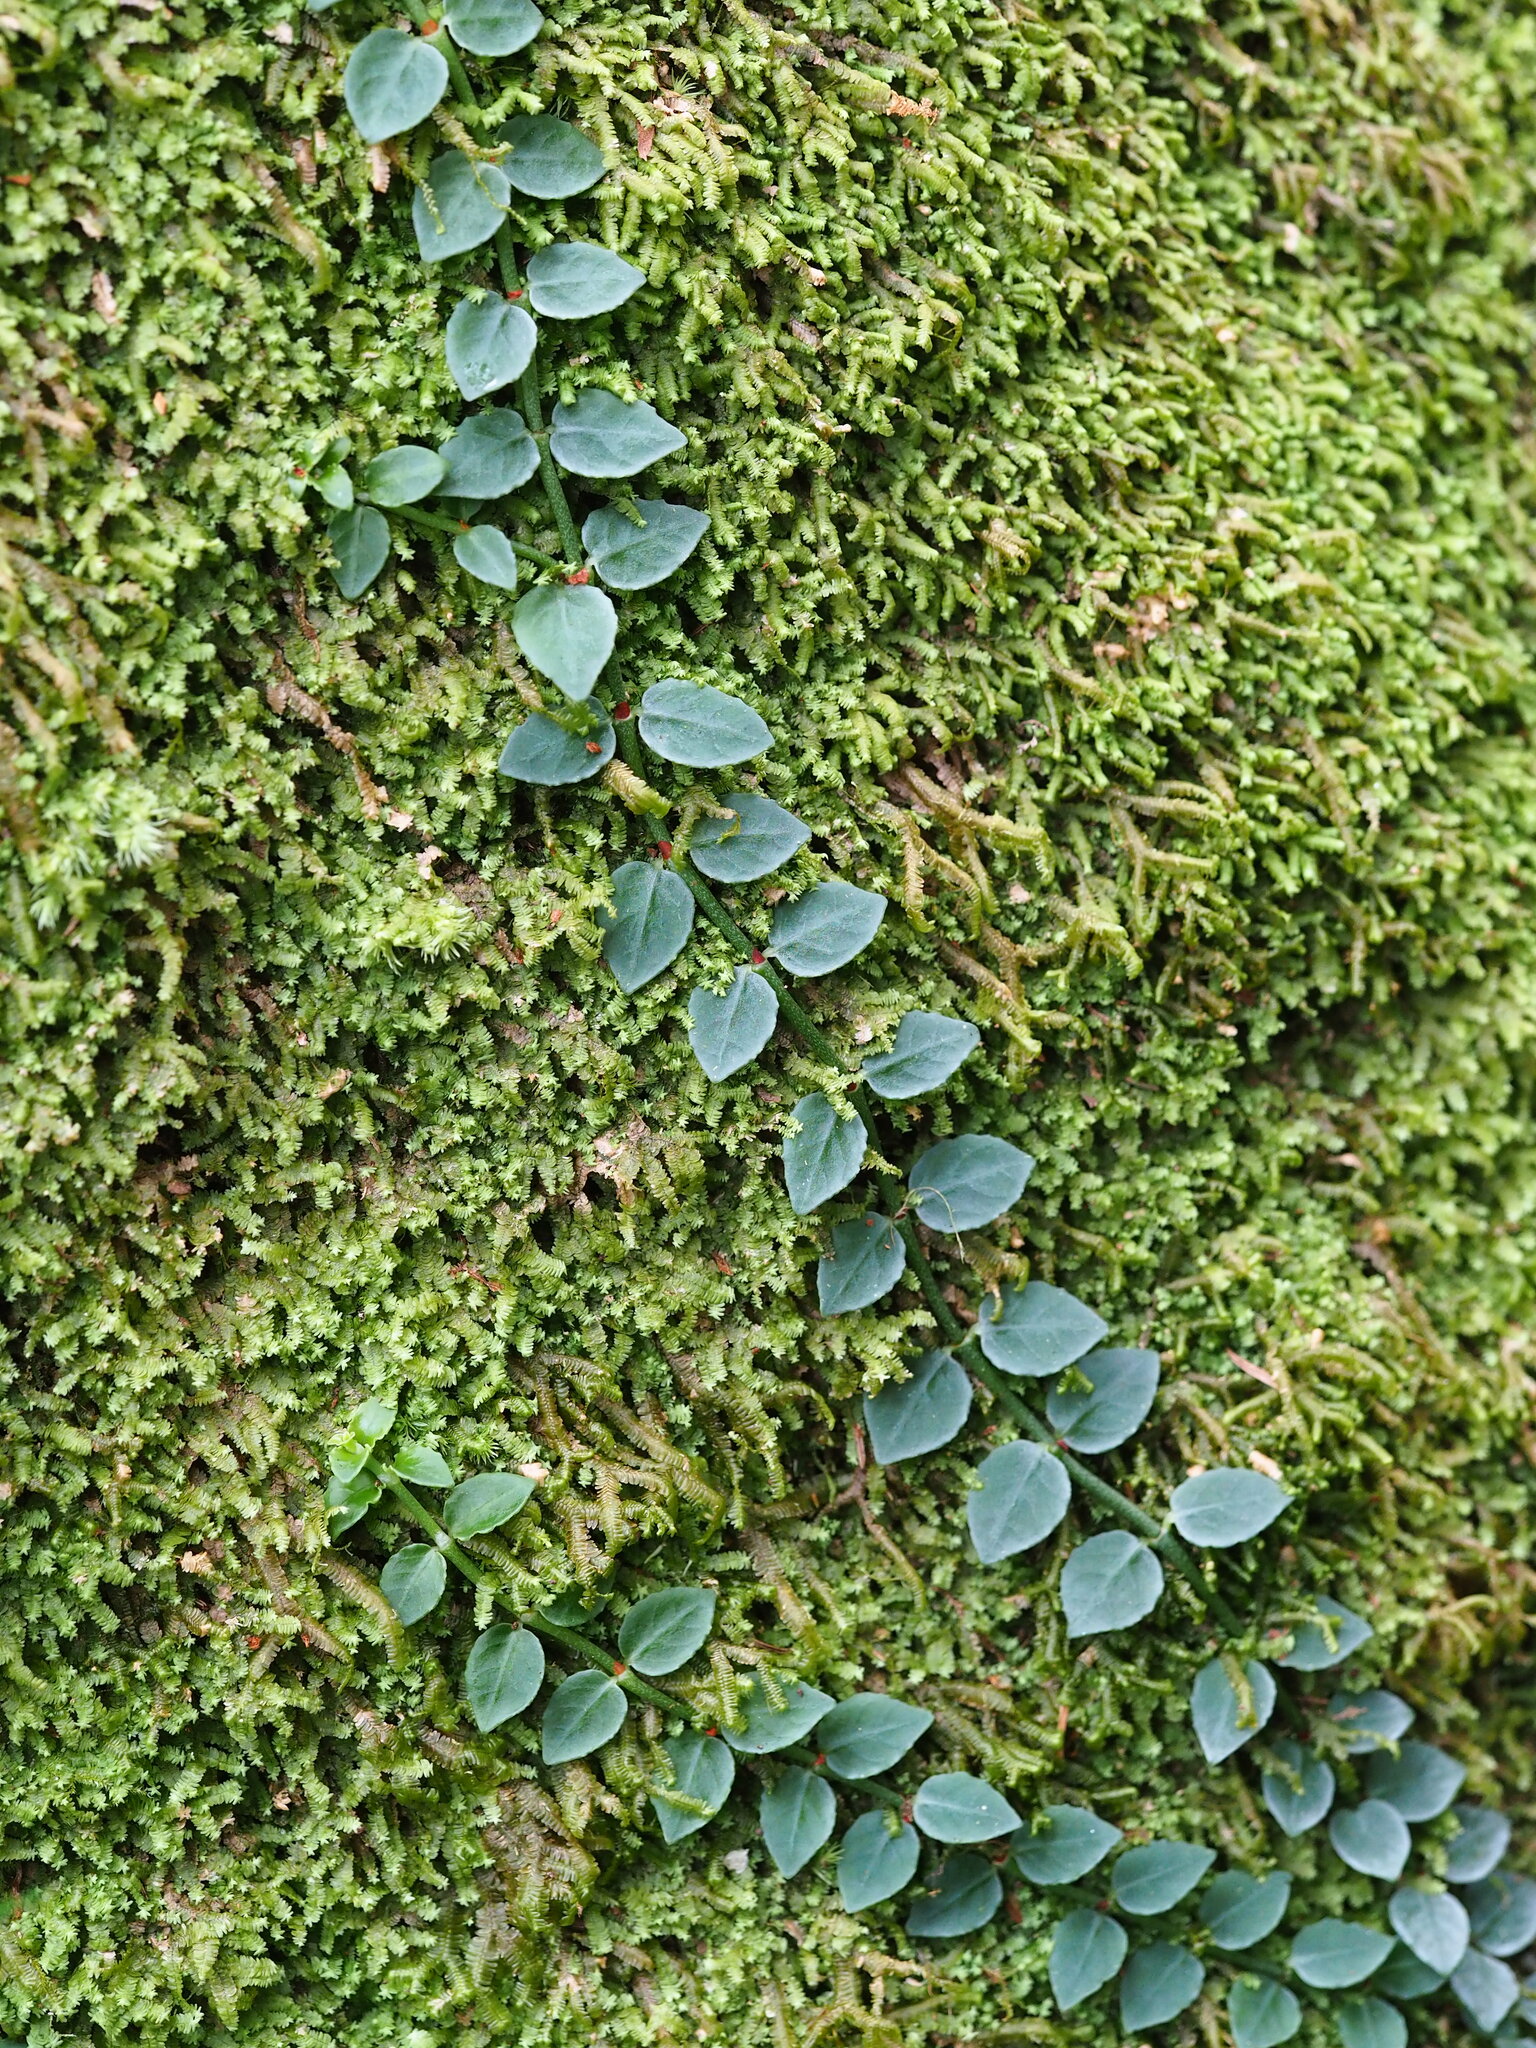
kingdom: Plantae
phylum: Tracheophyta
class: Magnoliopsida
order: Gentianales
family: Rubiaceae
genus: Psychotria
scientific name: Psychotria serpens
